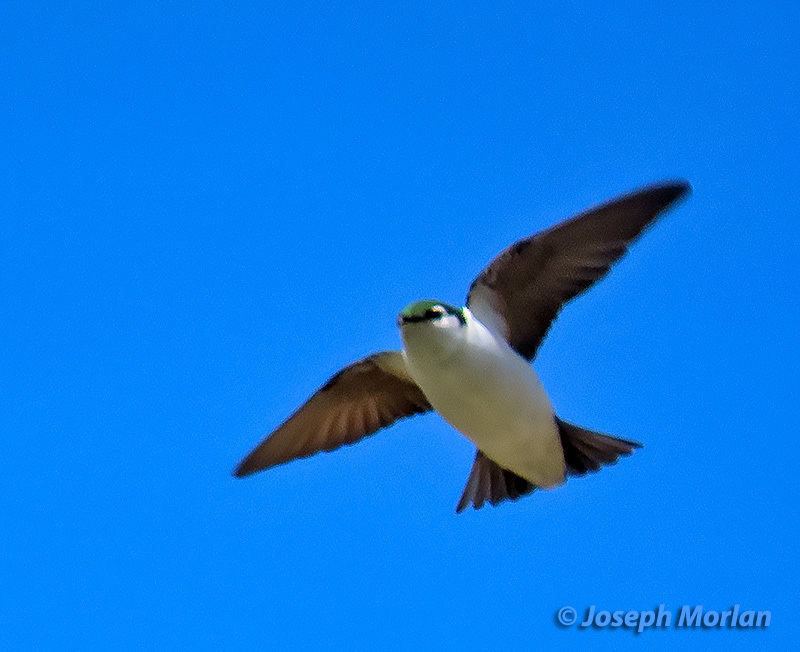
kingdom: Animalia
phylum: Chordata
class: Aves
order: Passeriformes
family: Hirundinidae
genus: Tachycineta
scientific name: Tachycineta thalassina
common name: Violet-green swallow
